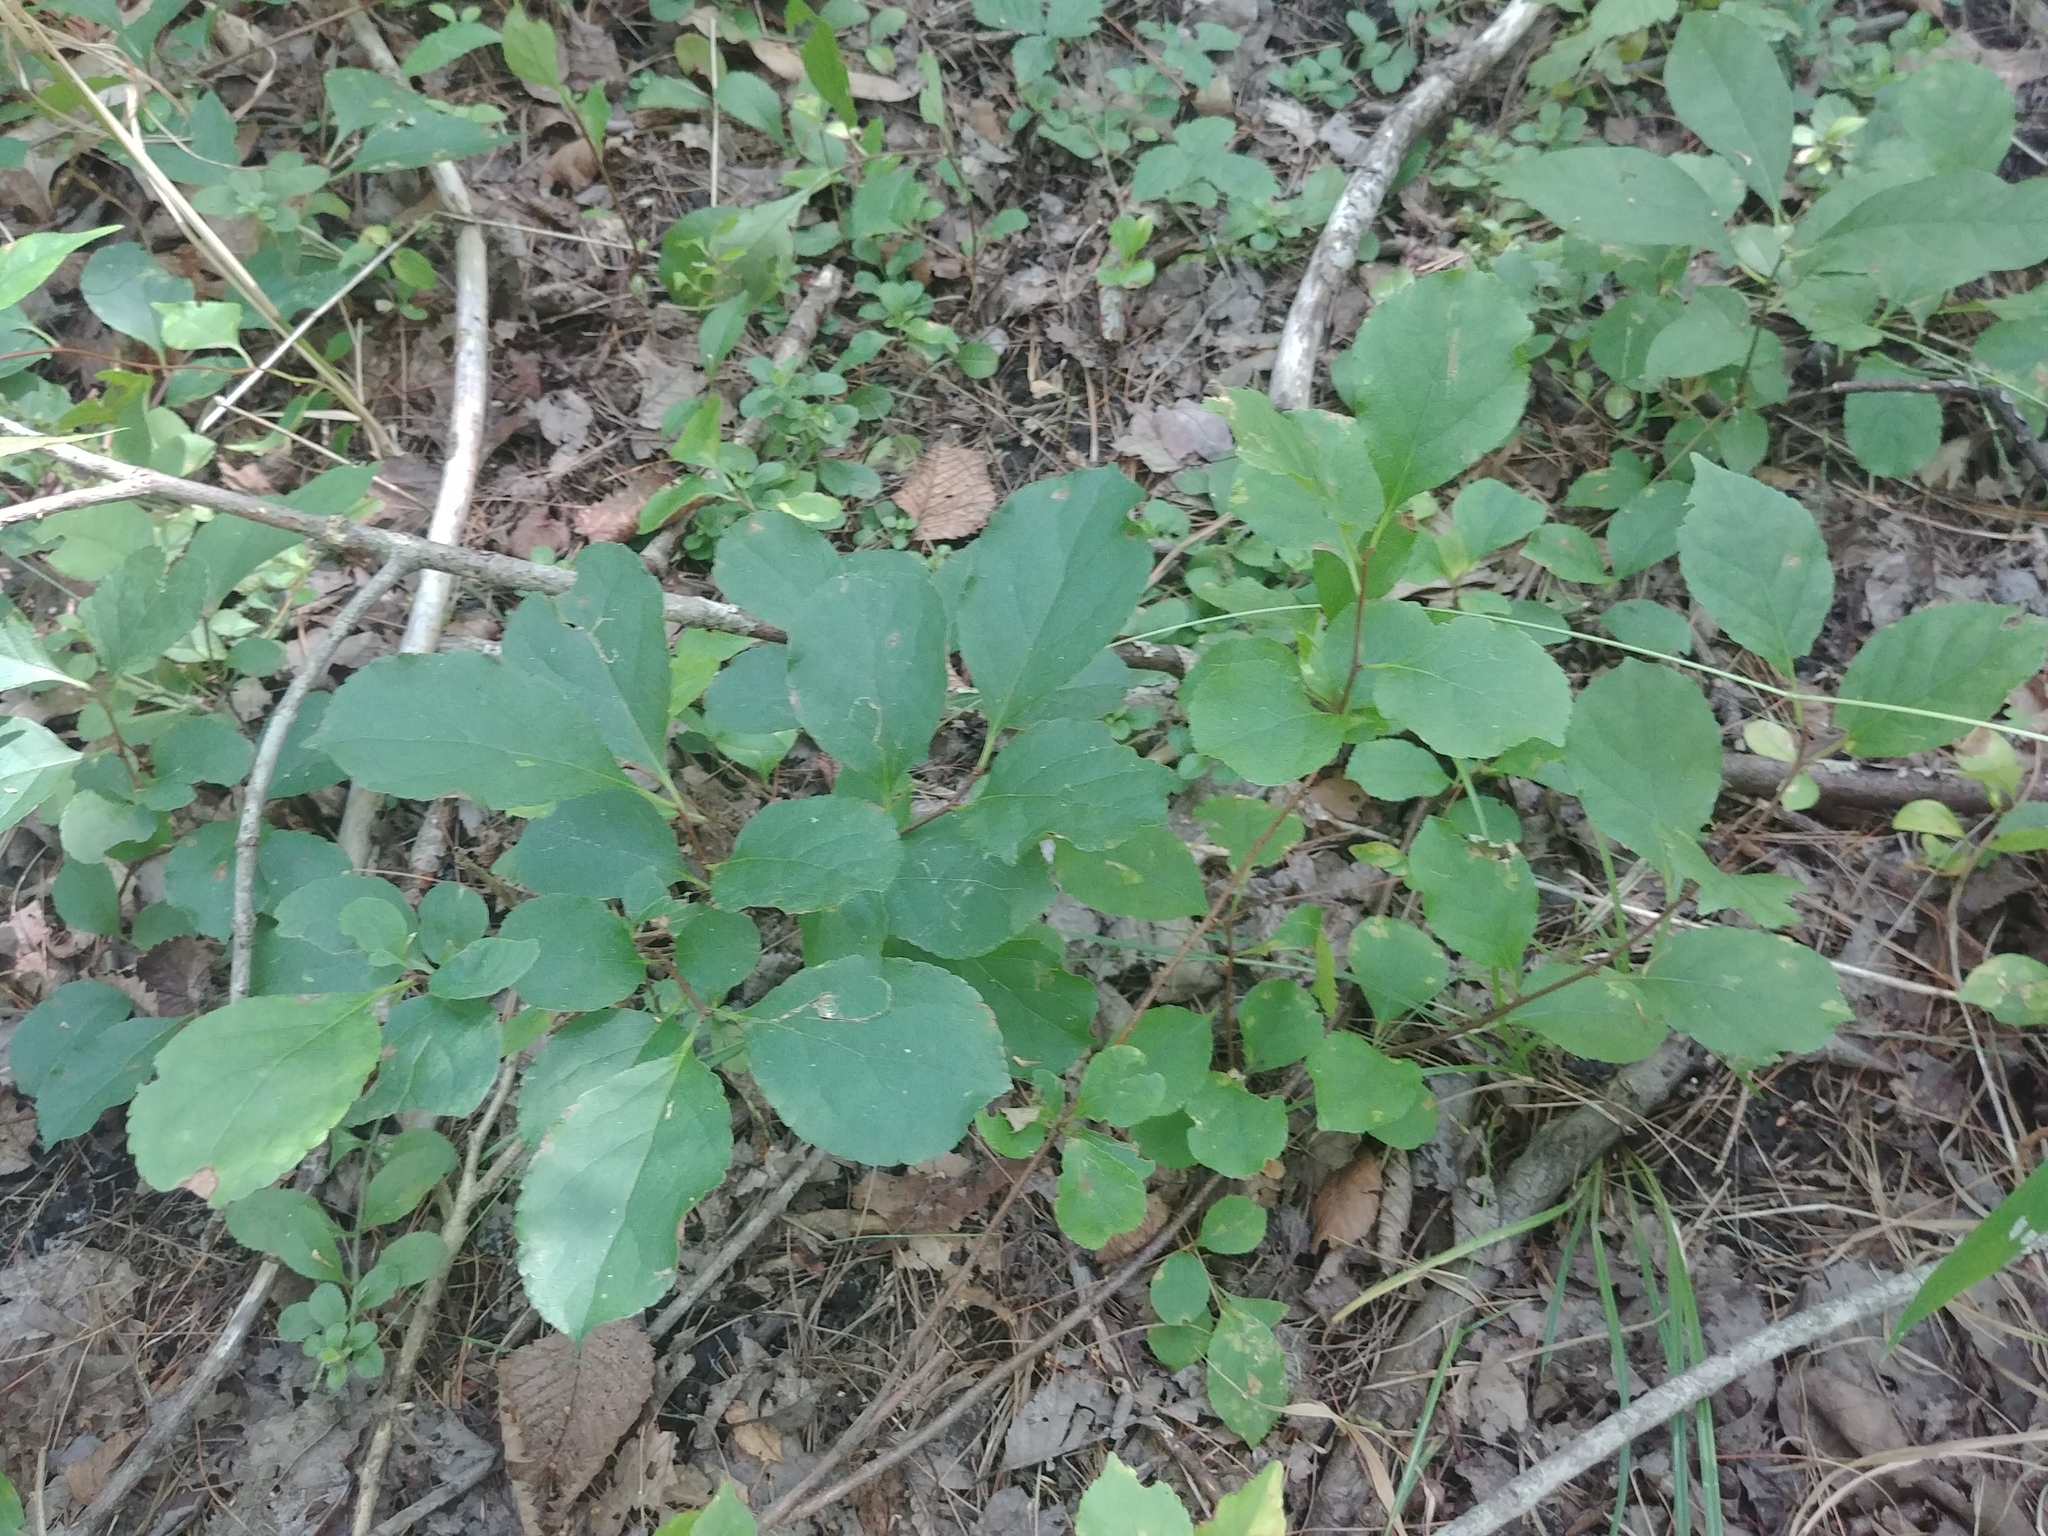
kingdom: Plantae
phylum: Tracheophyta
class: Magnoliopsida
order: Celastrales
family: Celastraceae
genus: Celastrus
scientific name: Celastrus orbiculatus
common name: Oriental bittersweet
